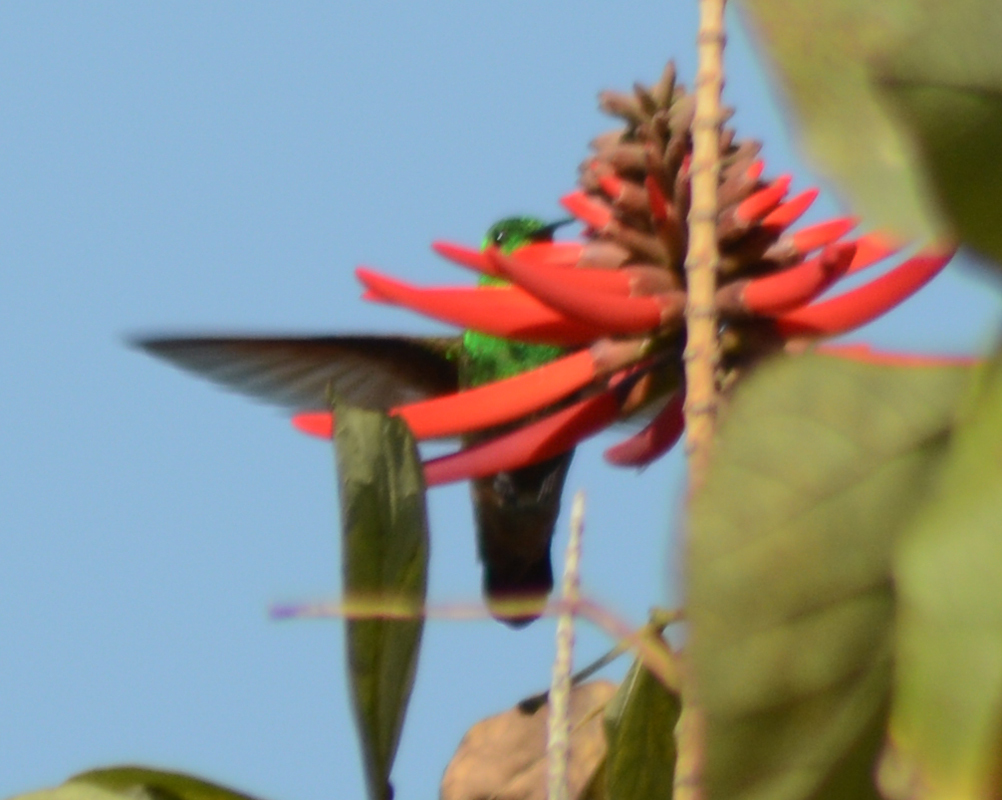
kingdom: Animalia
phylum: Chordata
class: Aves
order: Apodiformes
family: Trochilidae
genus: Saucerottia
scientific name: Saucerottia beryllina
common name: Berylline hummingbird
